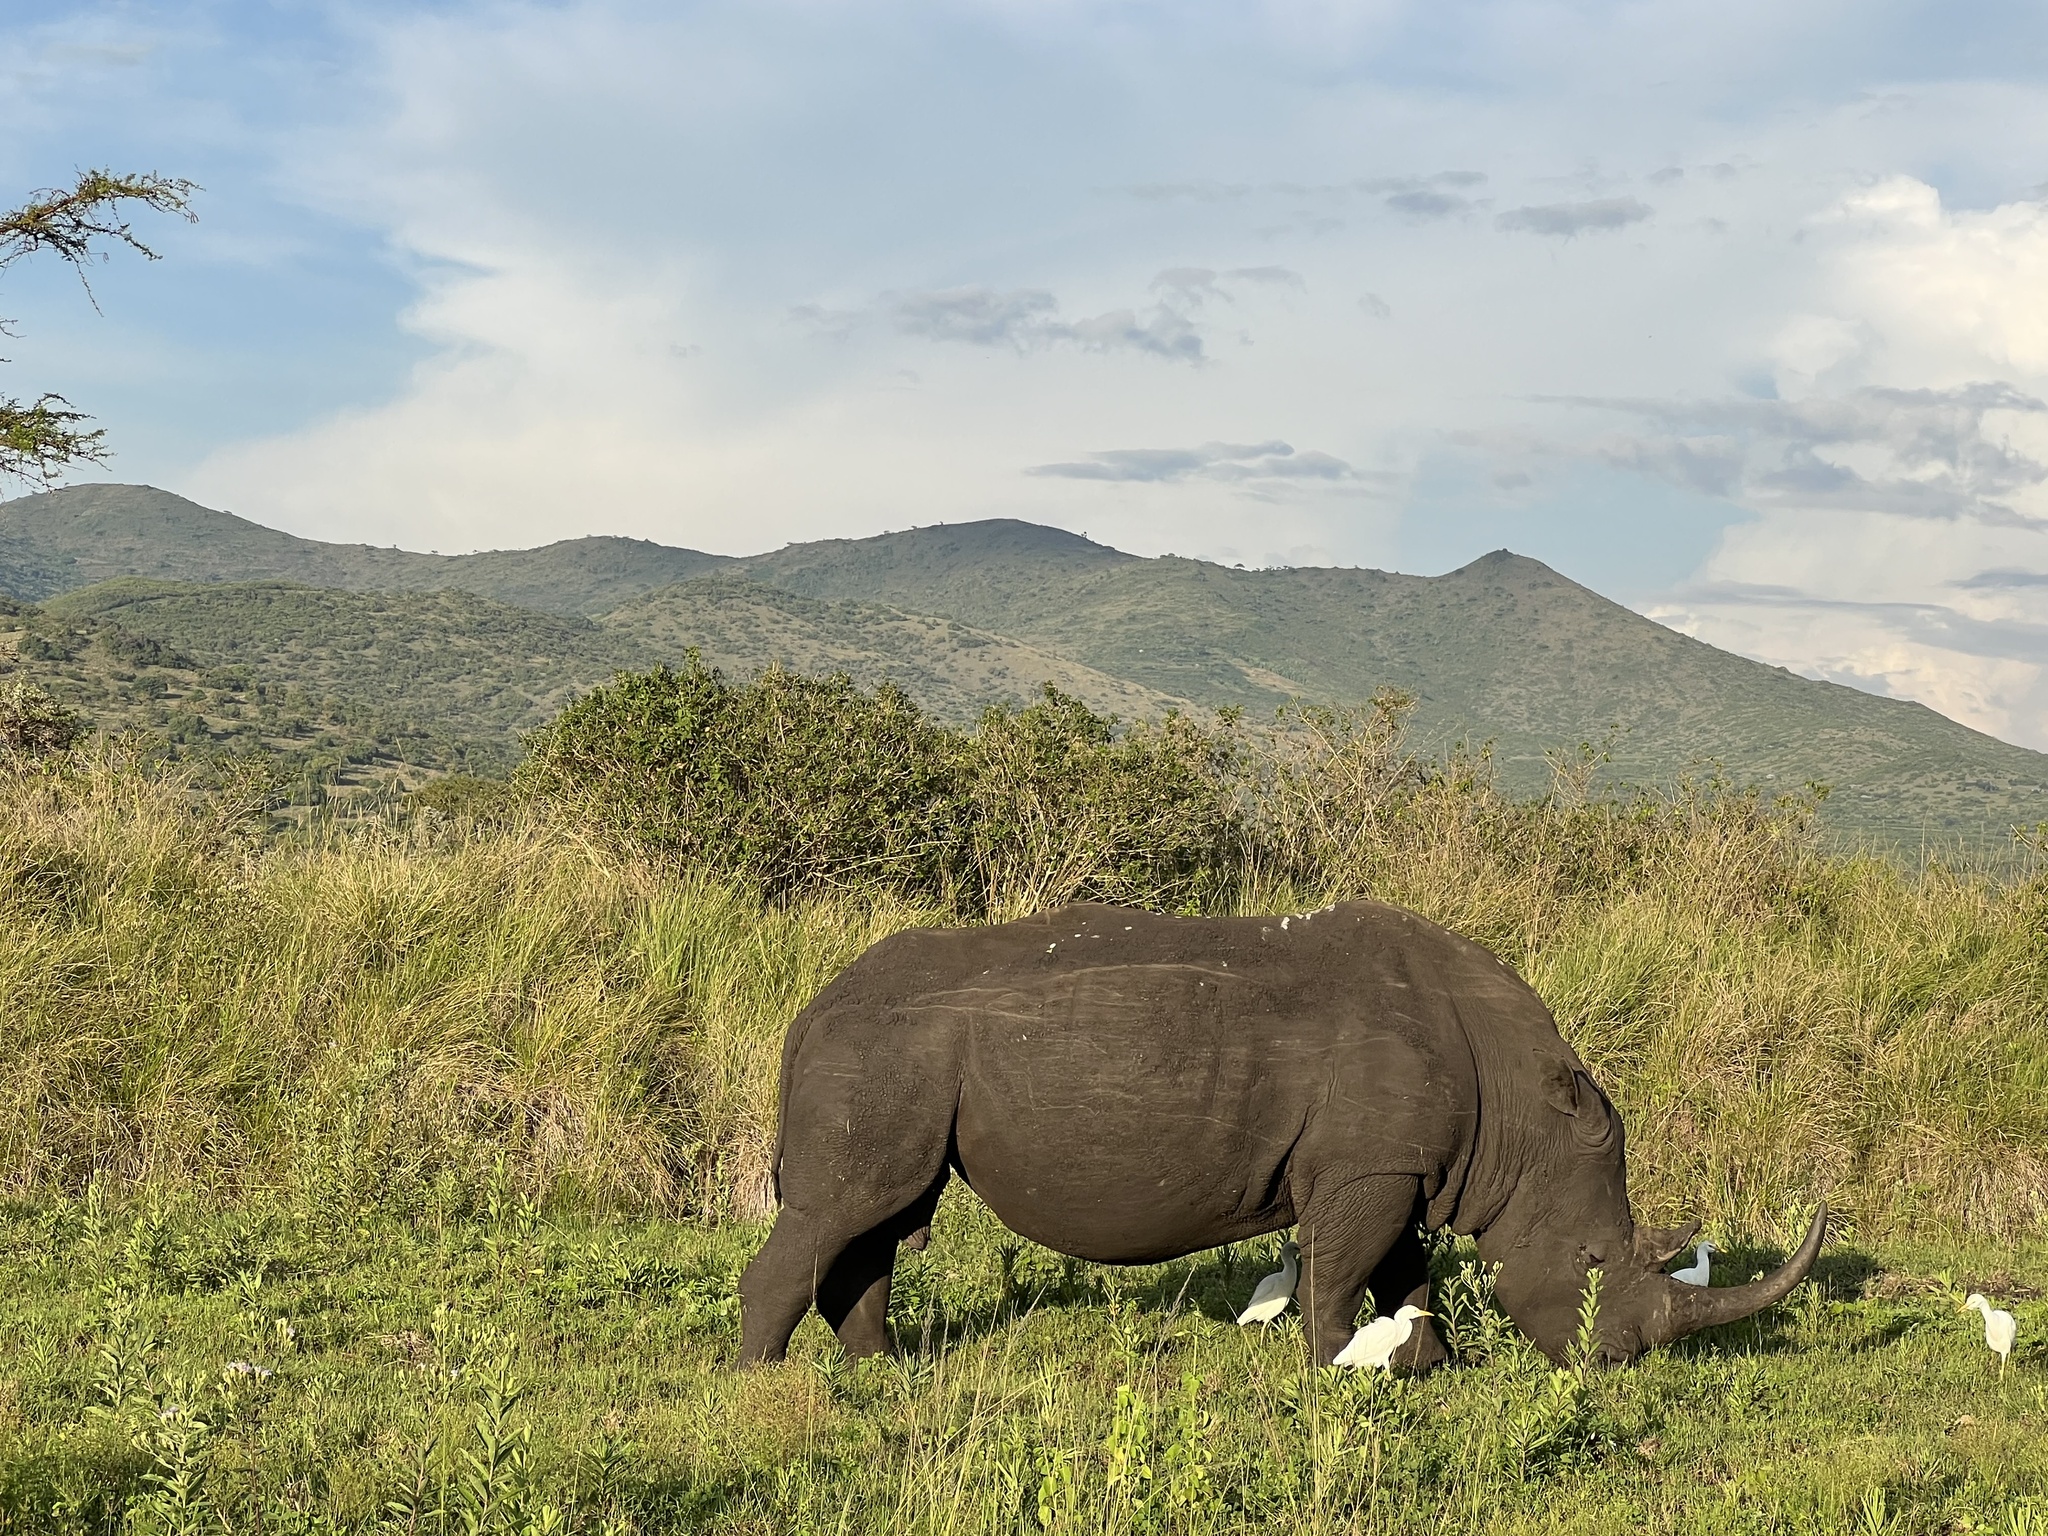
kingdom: Animalia
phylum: Chordata
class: Mammalia
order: Perissodactyla
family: Rhinocerotidae
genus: Ceratotherium
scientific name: Ceratotherium simum
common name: White rhinoceros
